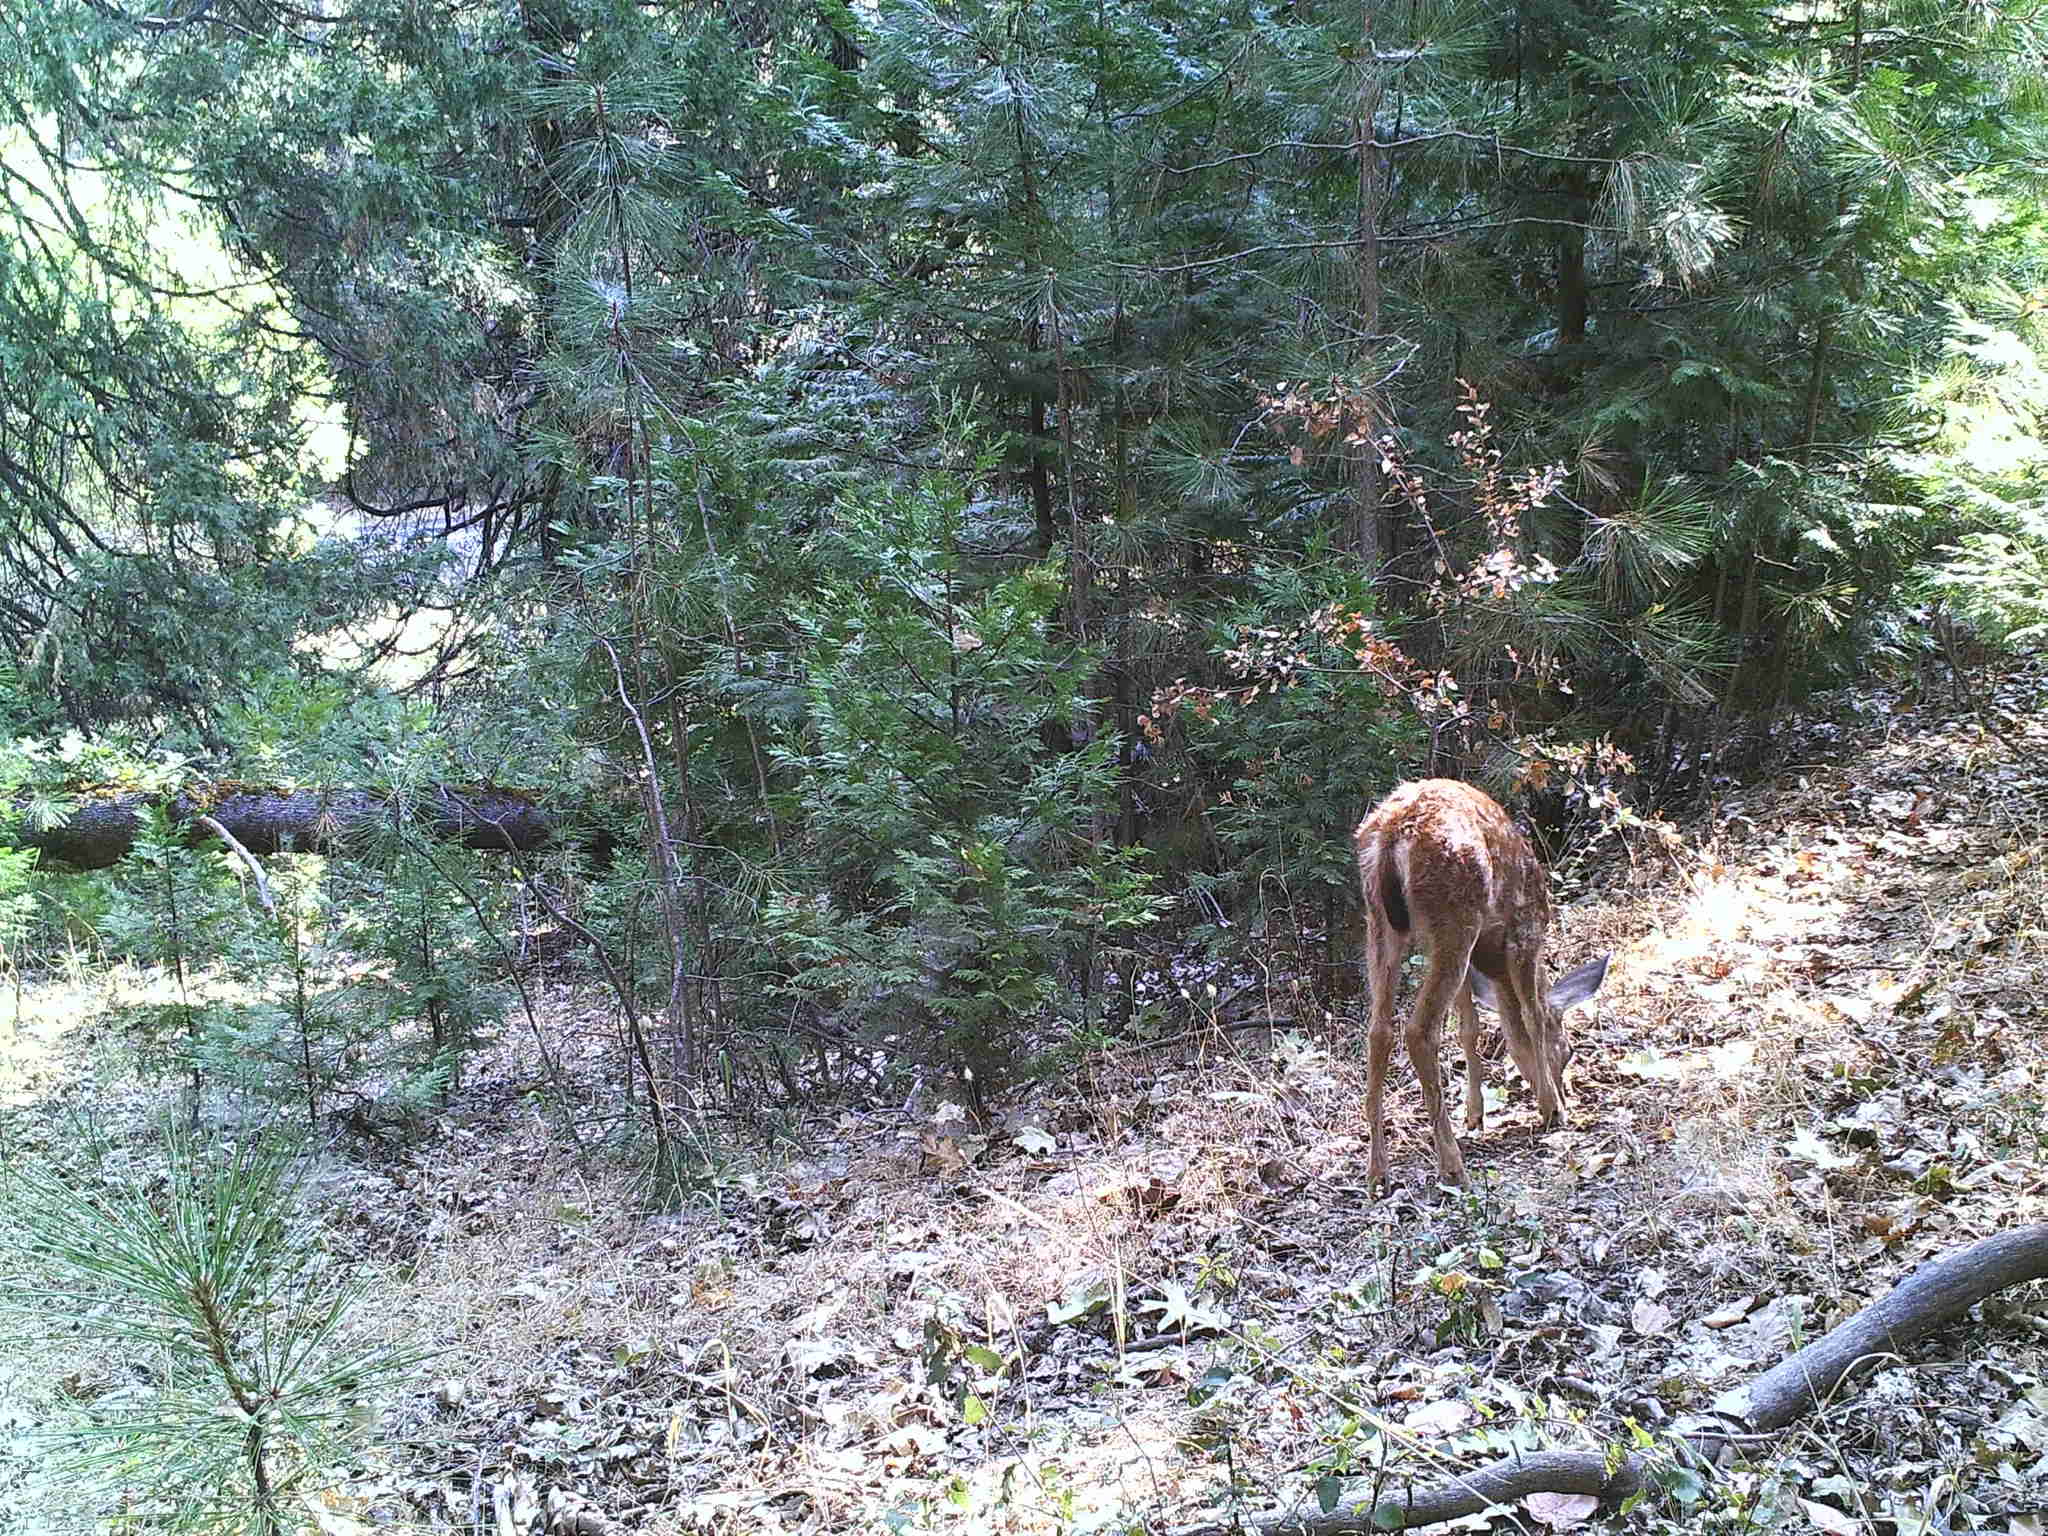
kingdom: Animalia
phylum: Chordata
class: Mammalia
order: Artiodactyla
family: Cervidae
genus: Odocoileus
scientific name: Odocoileus hemionus
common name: Mule deer
